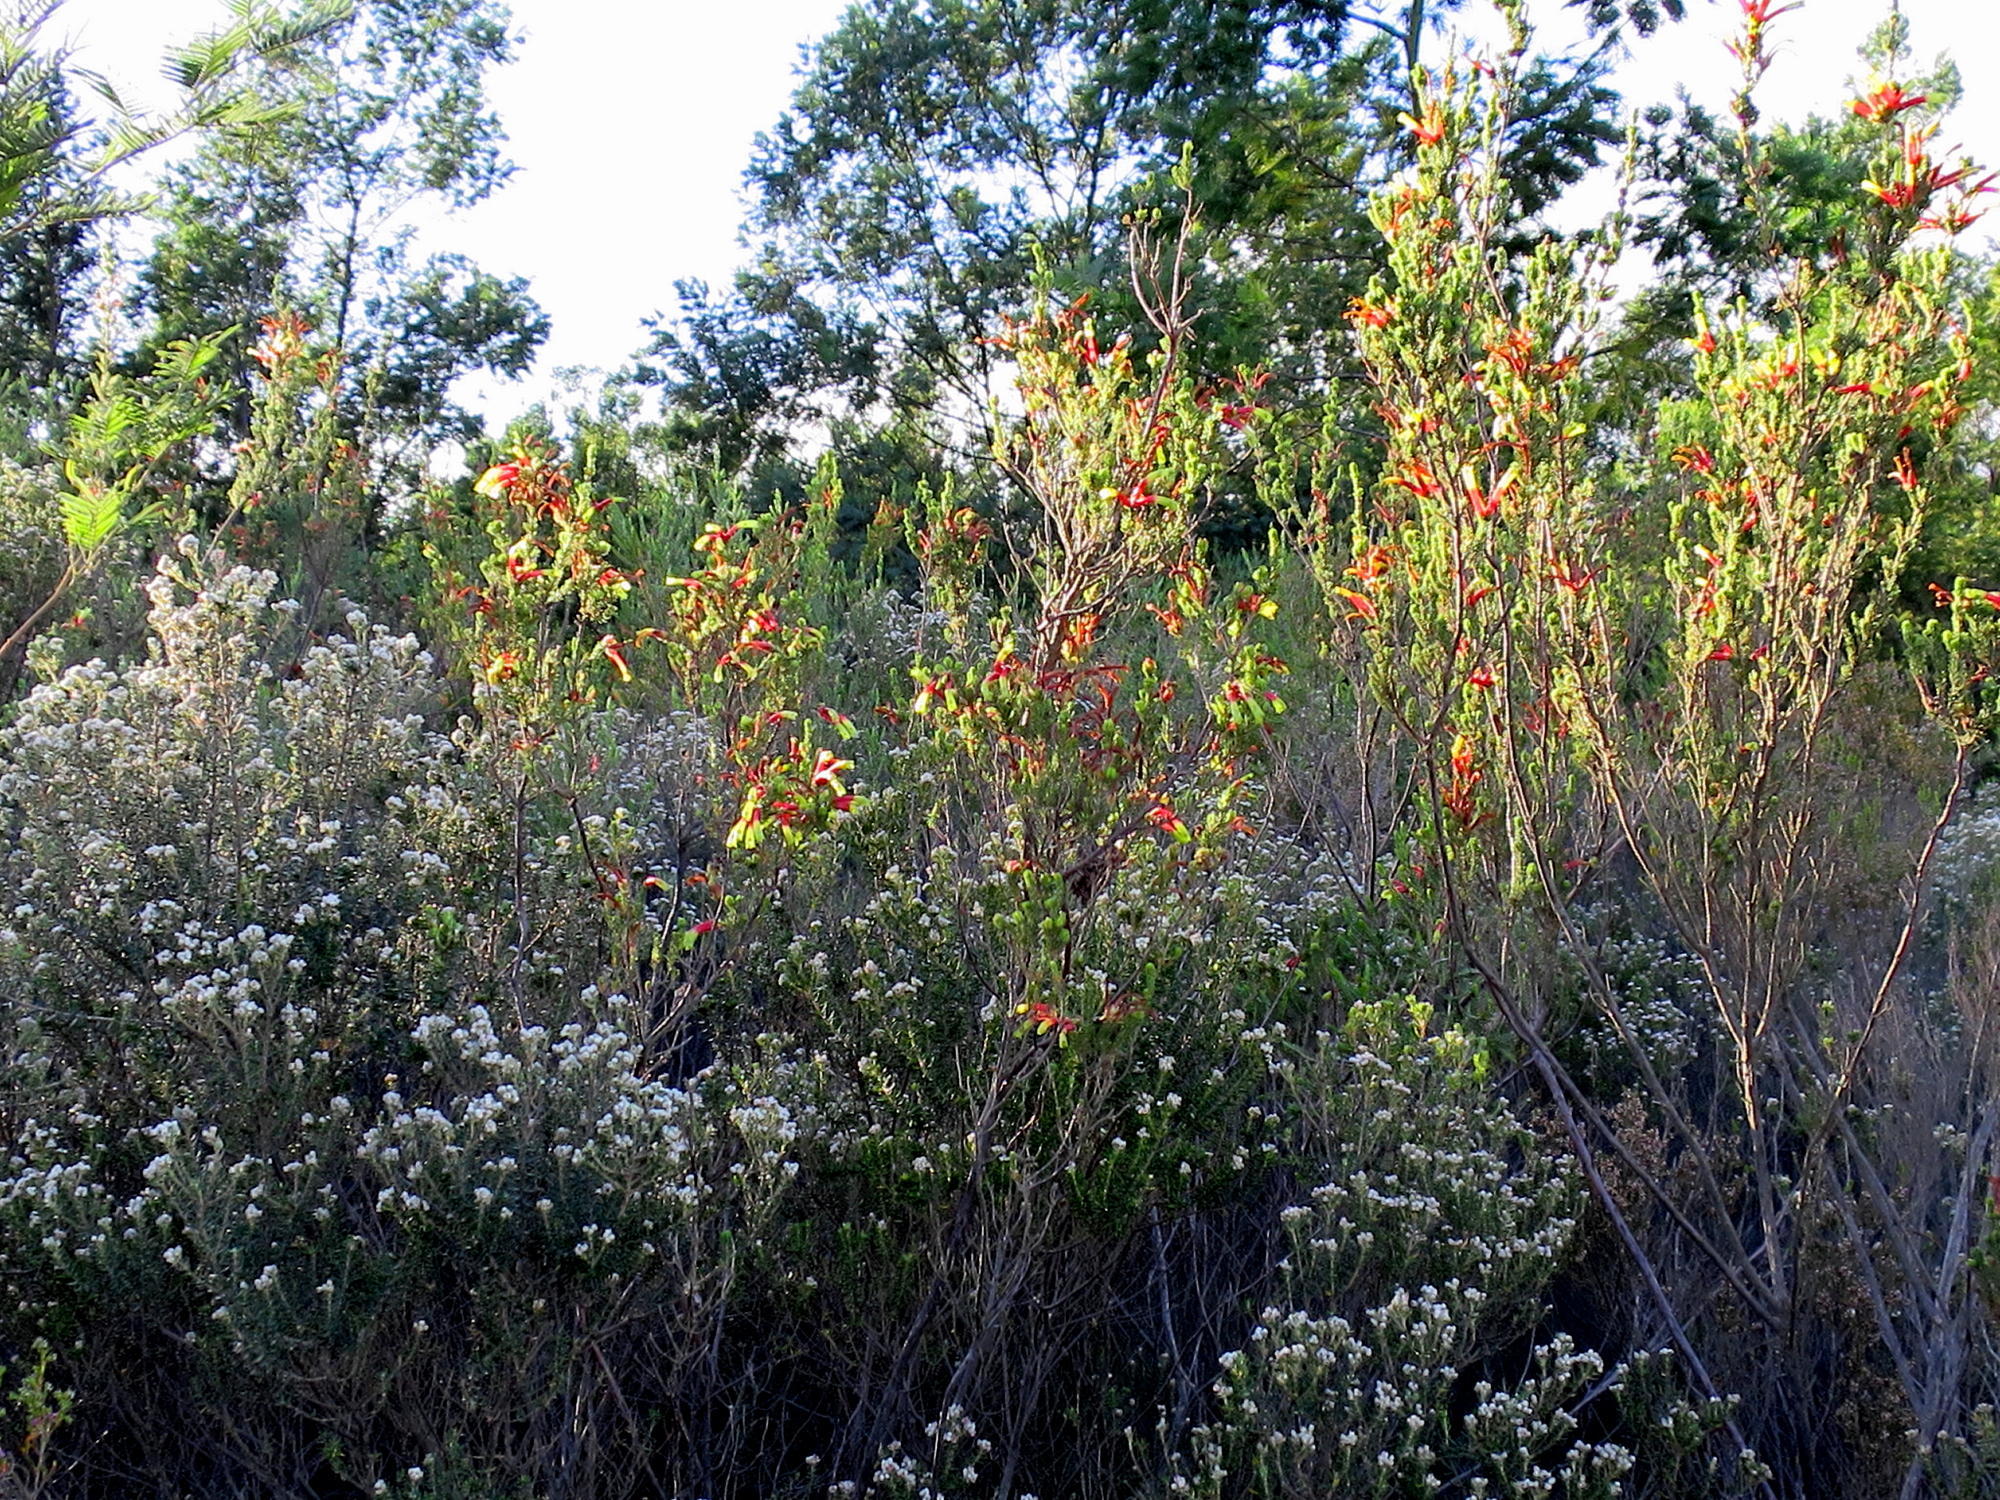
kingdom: Plantae
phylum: Tracheophyta
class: Magnoliopsida
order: Ericales
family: Ericaceae
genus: Erica
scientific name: Erica unicolor
